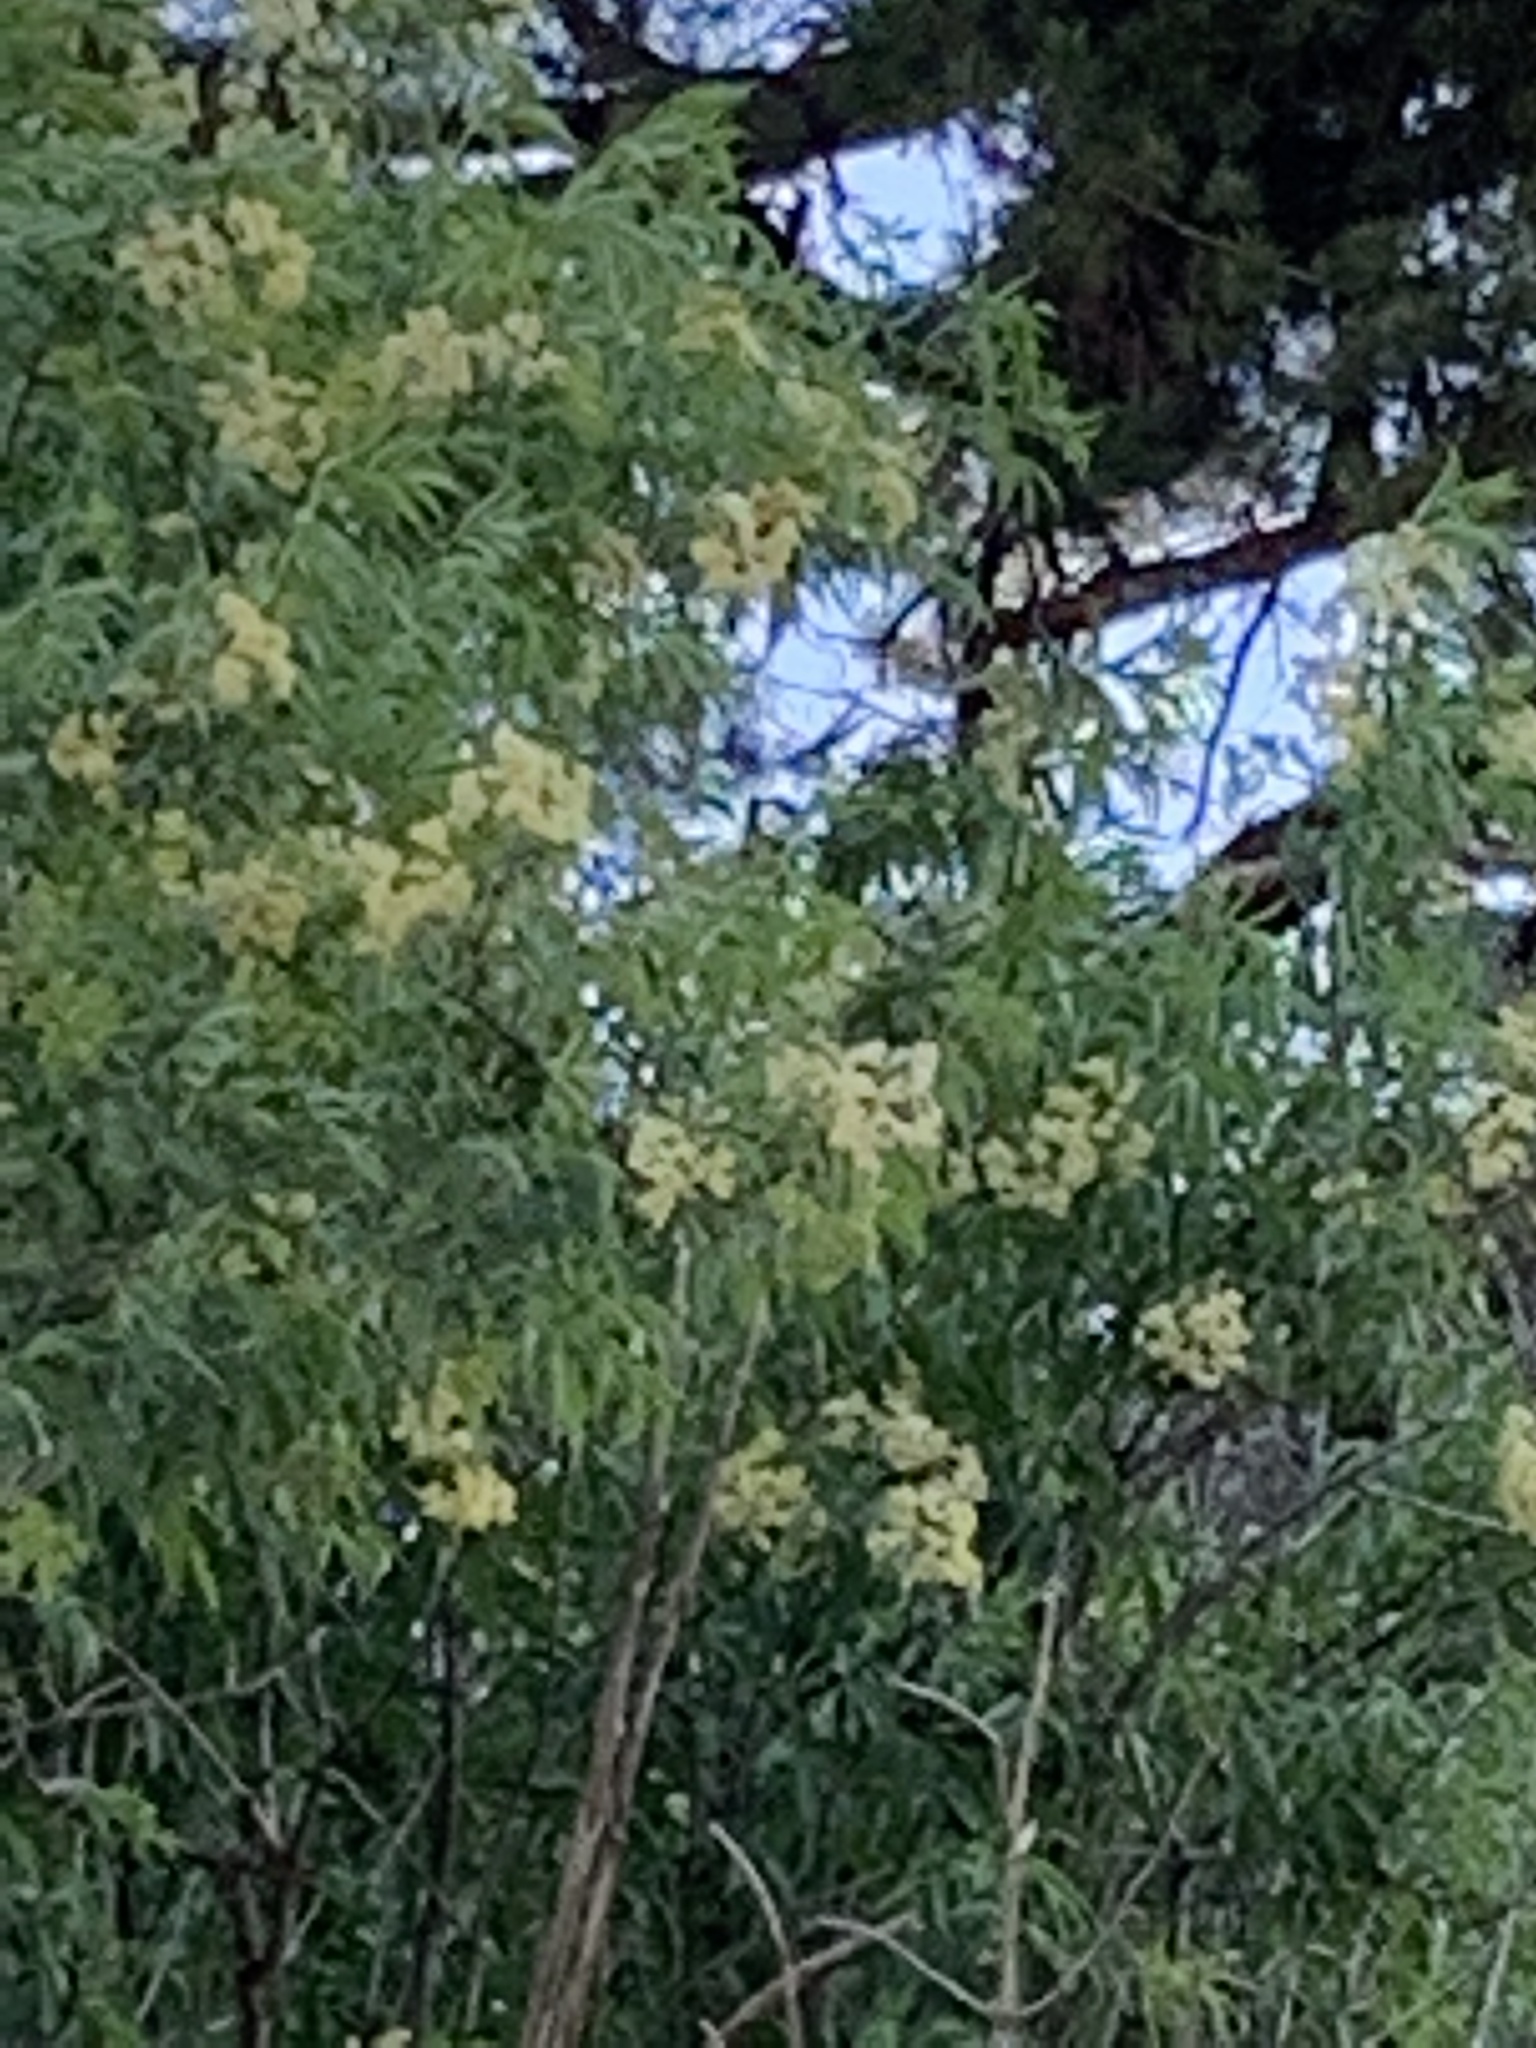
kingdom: Plantae
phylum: Tracheophyta
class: Magnoliopsida
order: Dipsacales
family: Viburnaceae
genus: Sambucus
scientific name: Sambucus cerulea
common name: Blue elder
